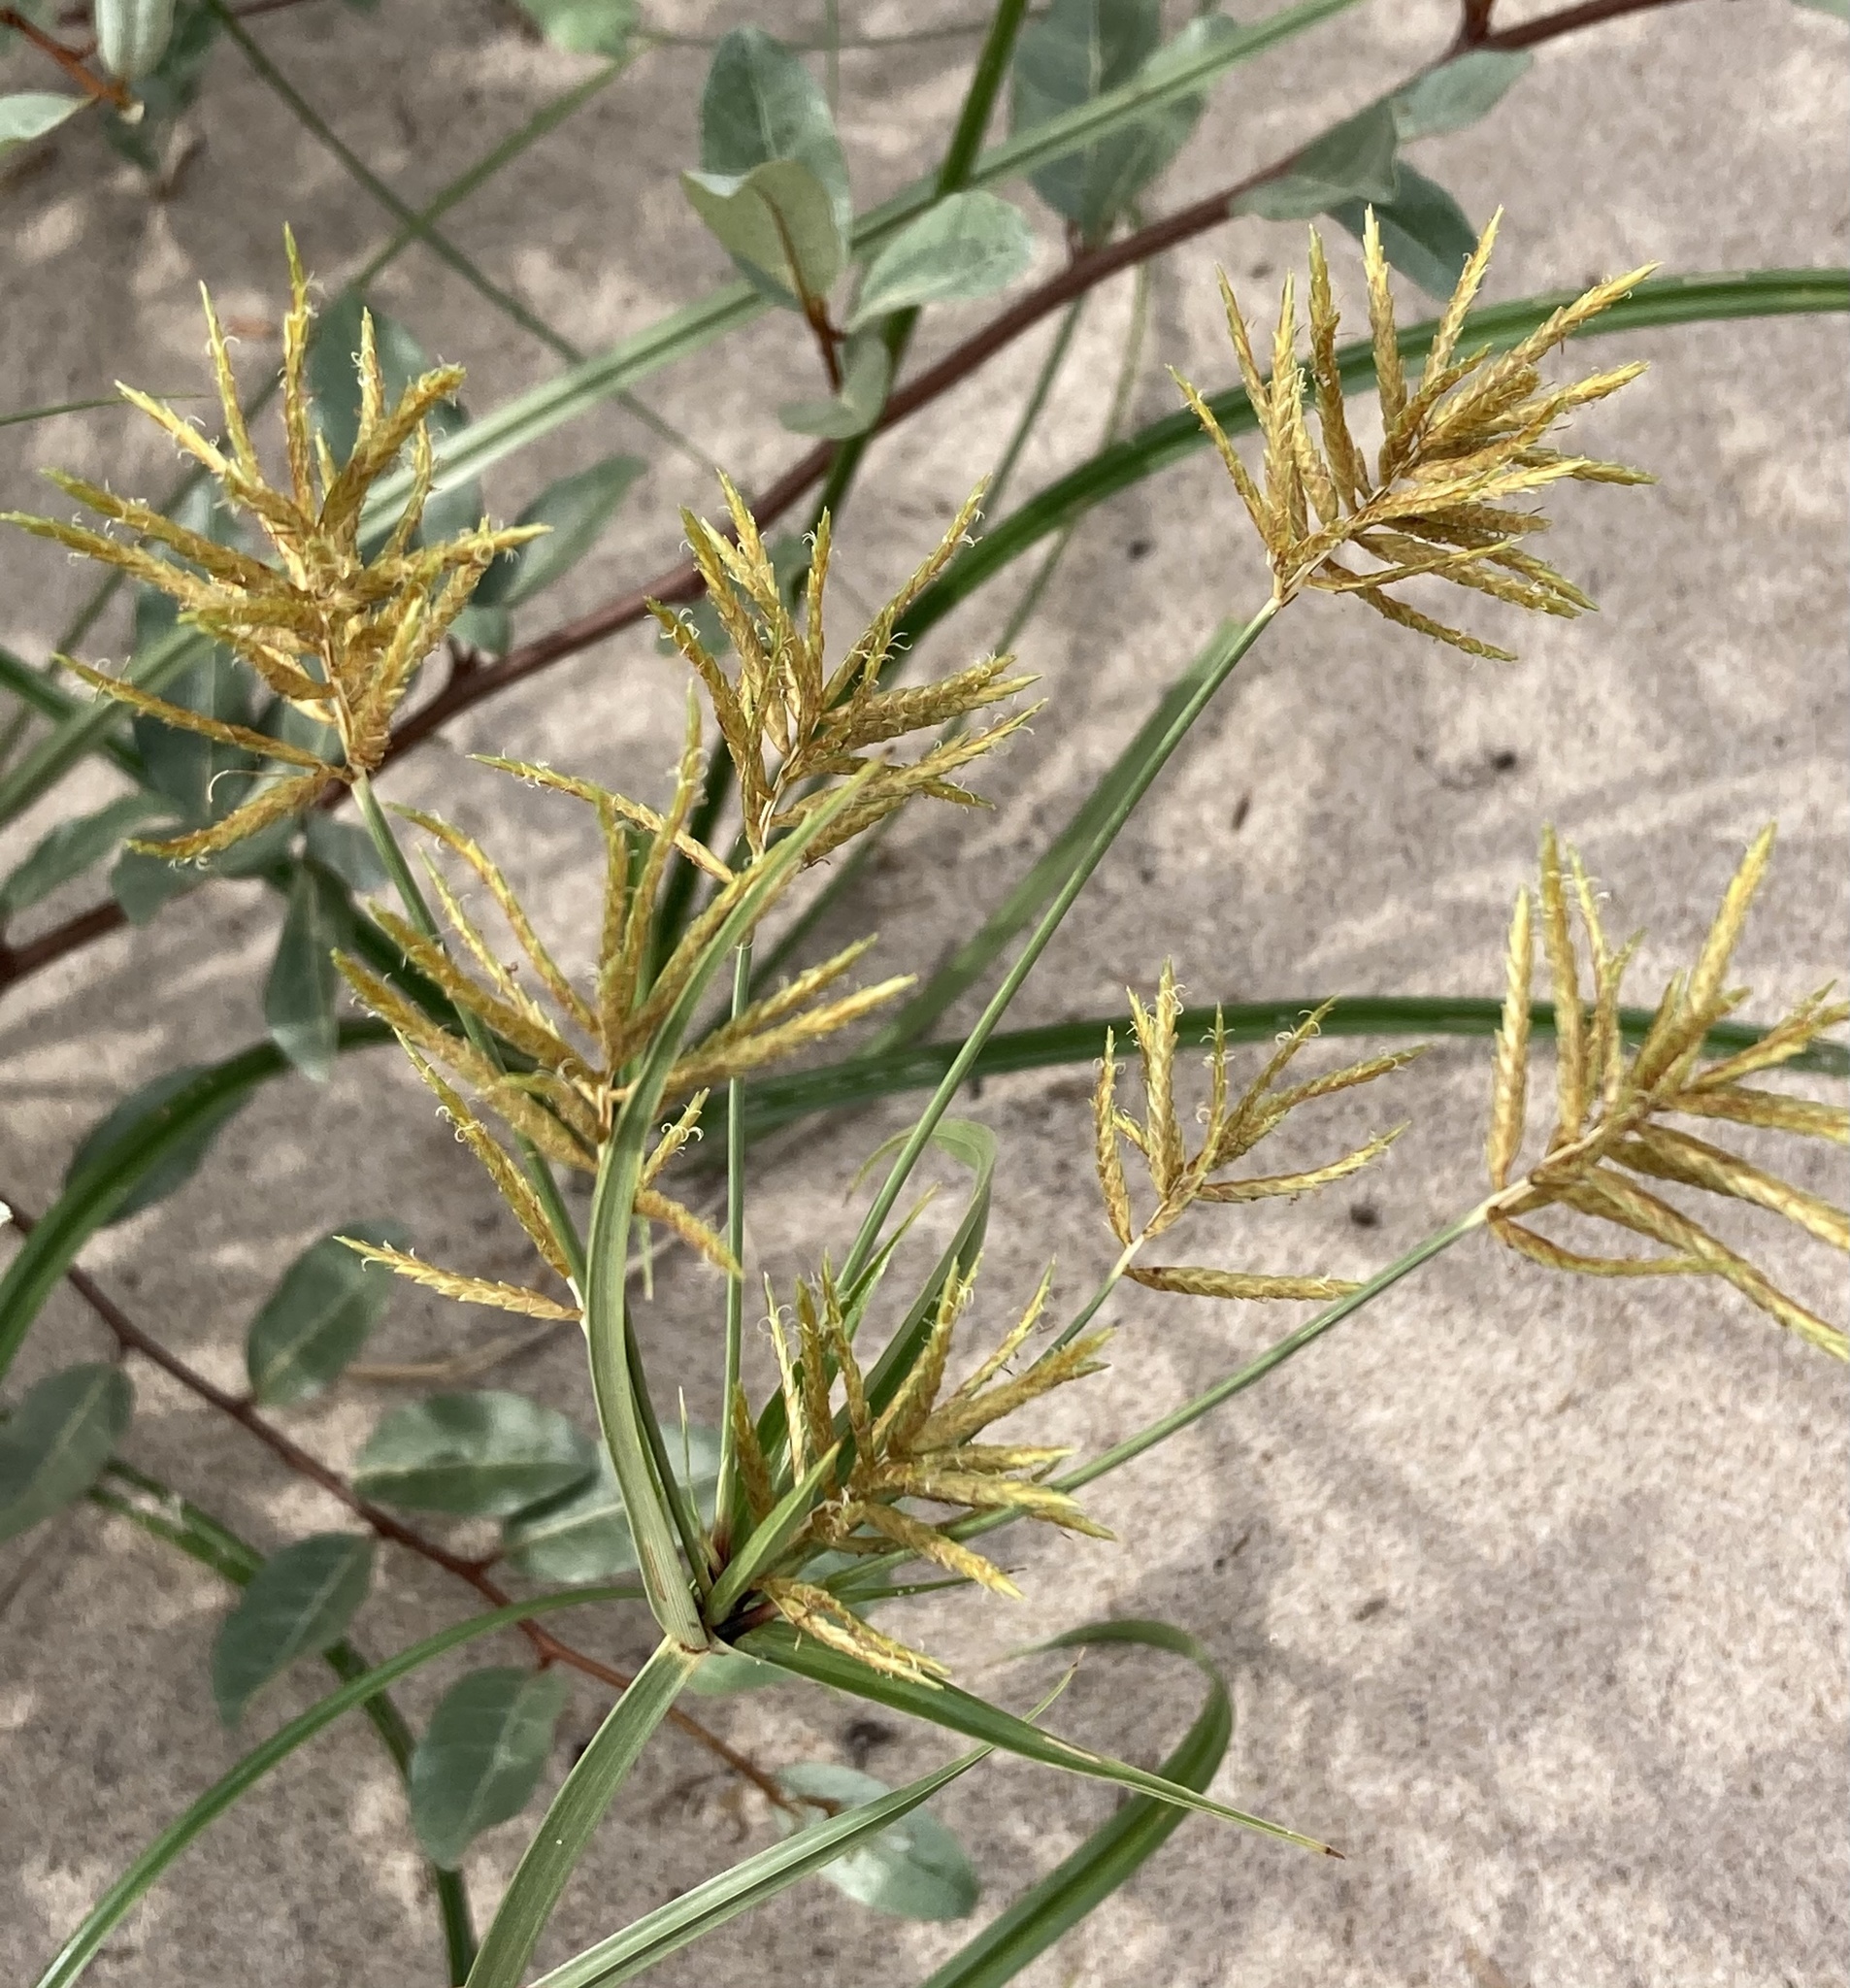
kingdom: Plantae
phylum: Tracheophyta
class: Liliopsida
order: Poales
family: Cyperaceae
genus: Cyperus
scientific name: Cyperus esculentus
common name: Yellow nutsedge
